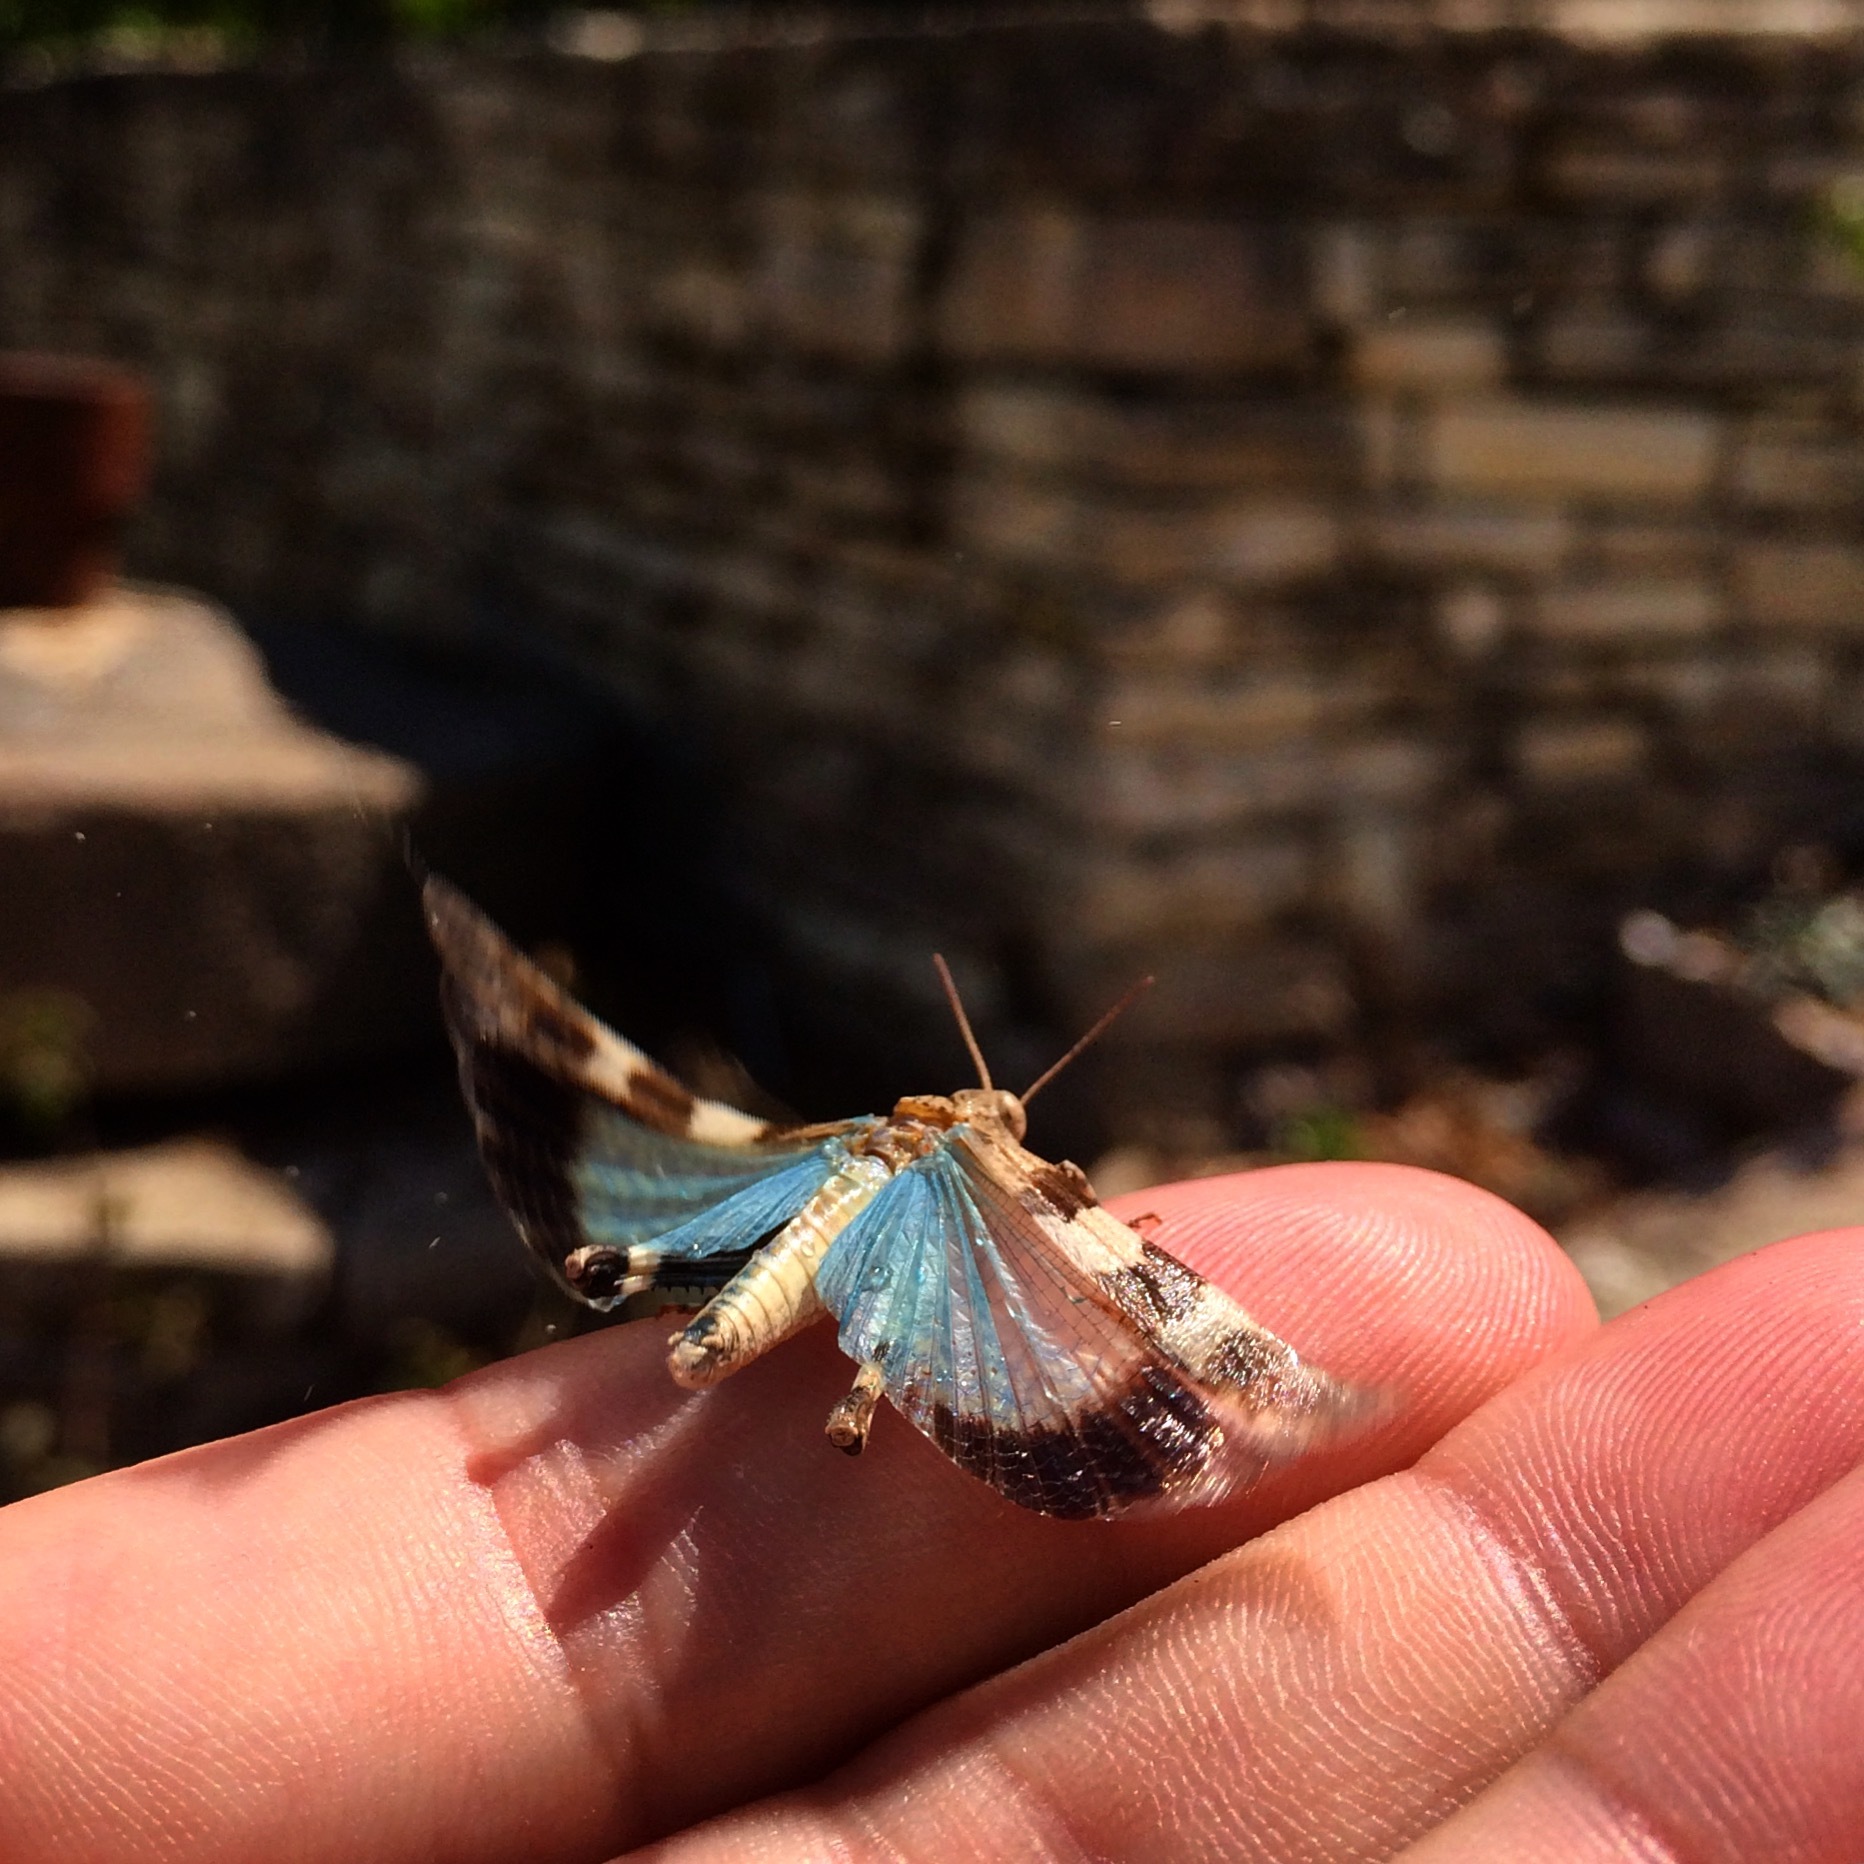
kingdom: Animalia
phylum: Arthropoda
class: Insecta
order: Orthoptera
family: Acrididae
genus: Oedipoda
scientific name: Oedipoda caerulescens
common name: Blue-winged grasshopper
